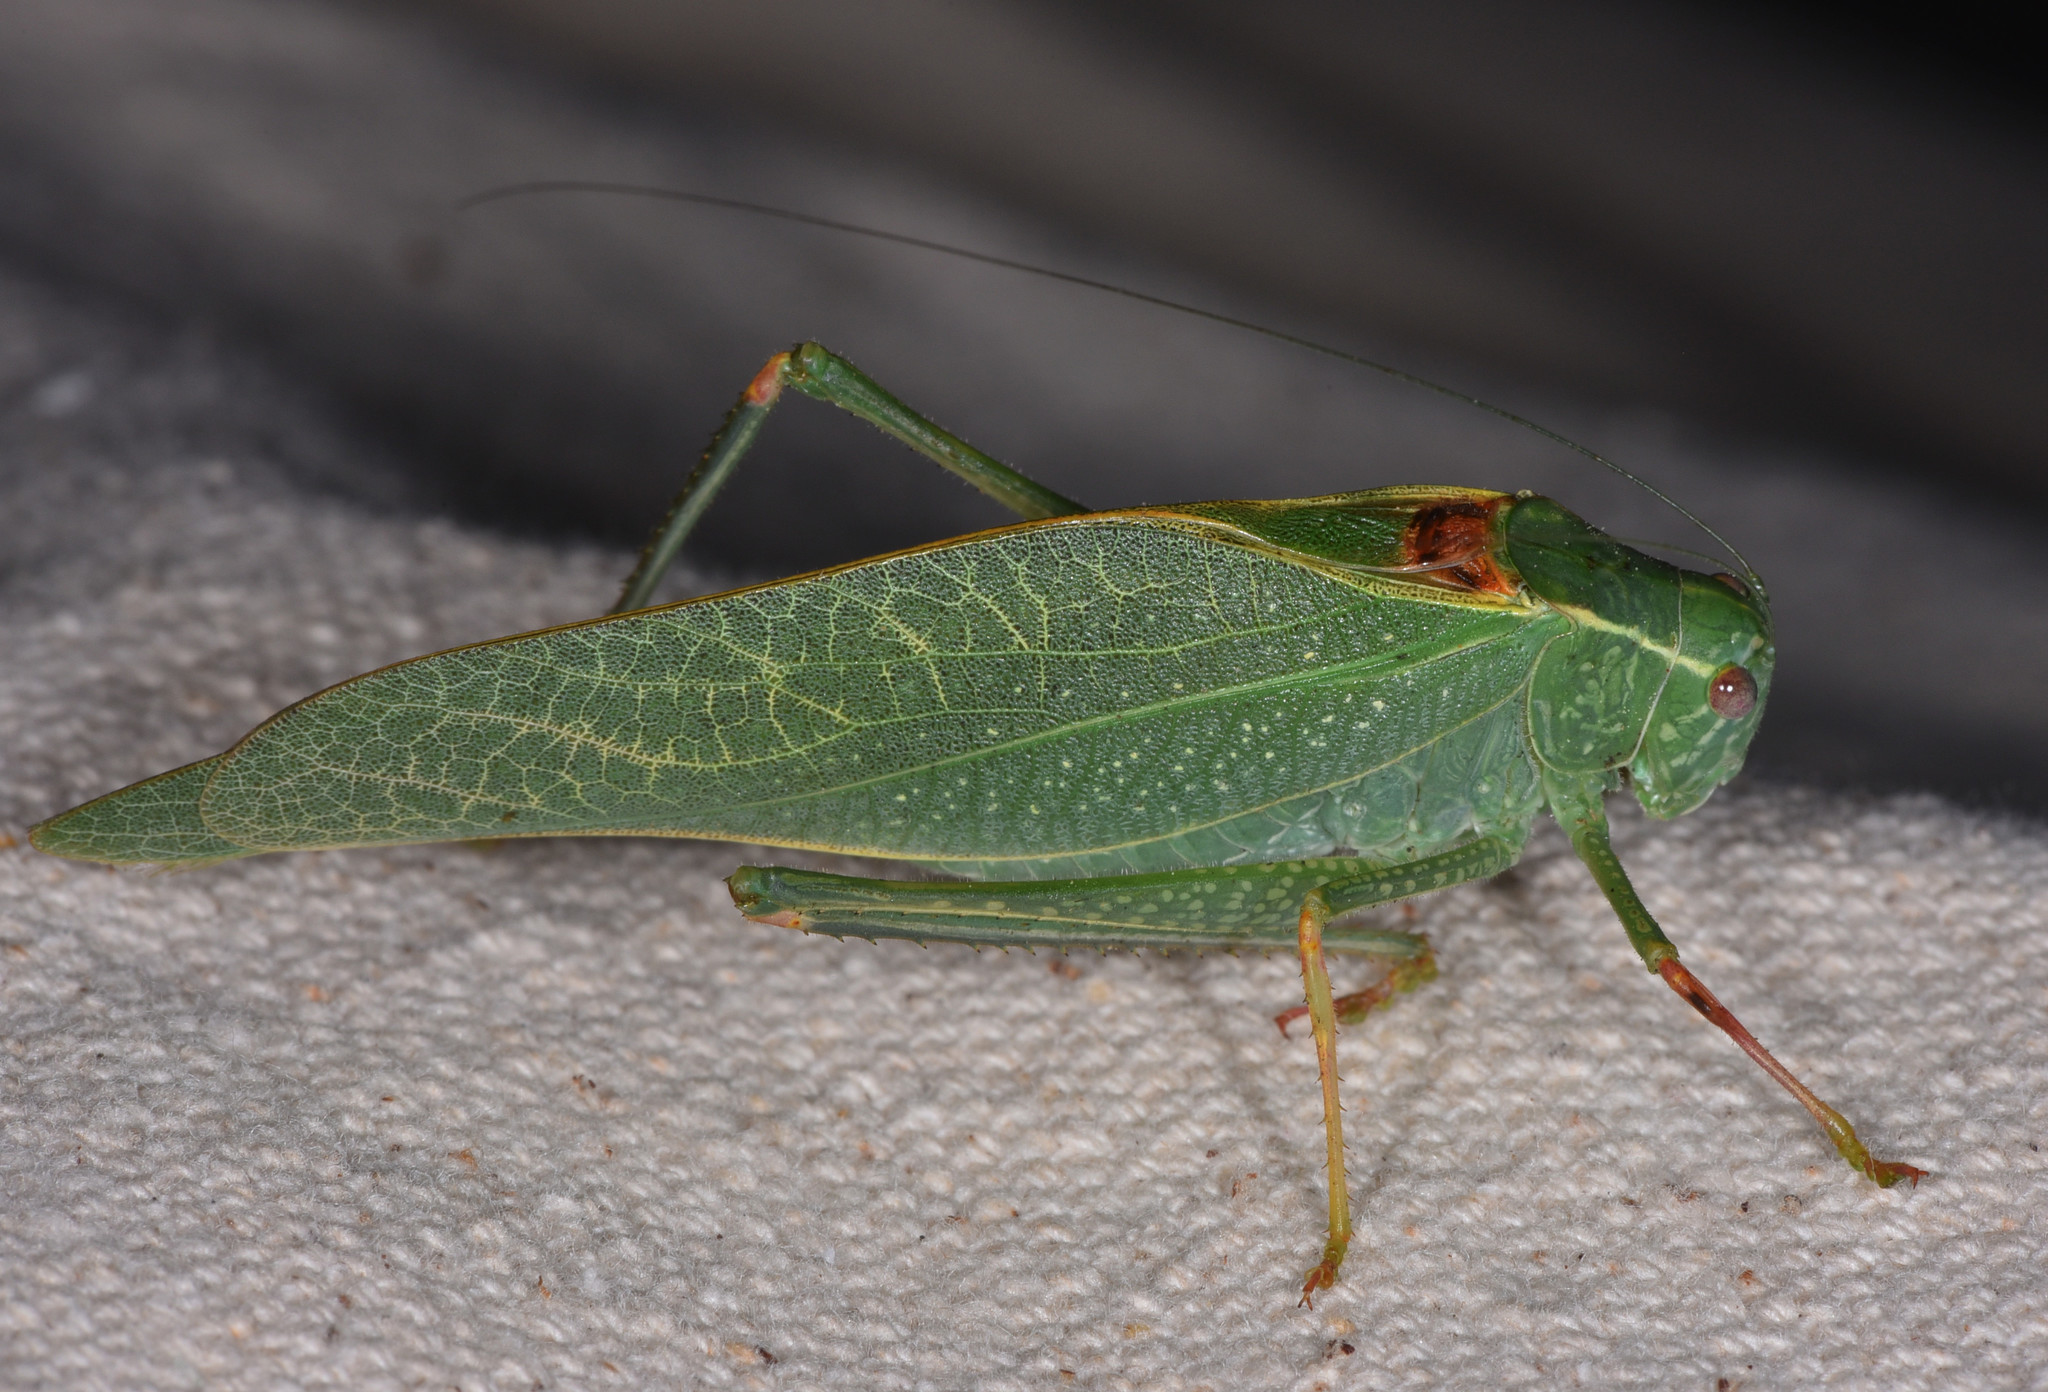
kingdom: Animalia
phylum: Arthropoda
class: Insecta
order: Orthoptera
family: Tettigoniidae
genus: Microcentrum
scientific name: Microcentrum californicum
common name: California angle-wing
